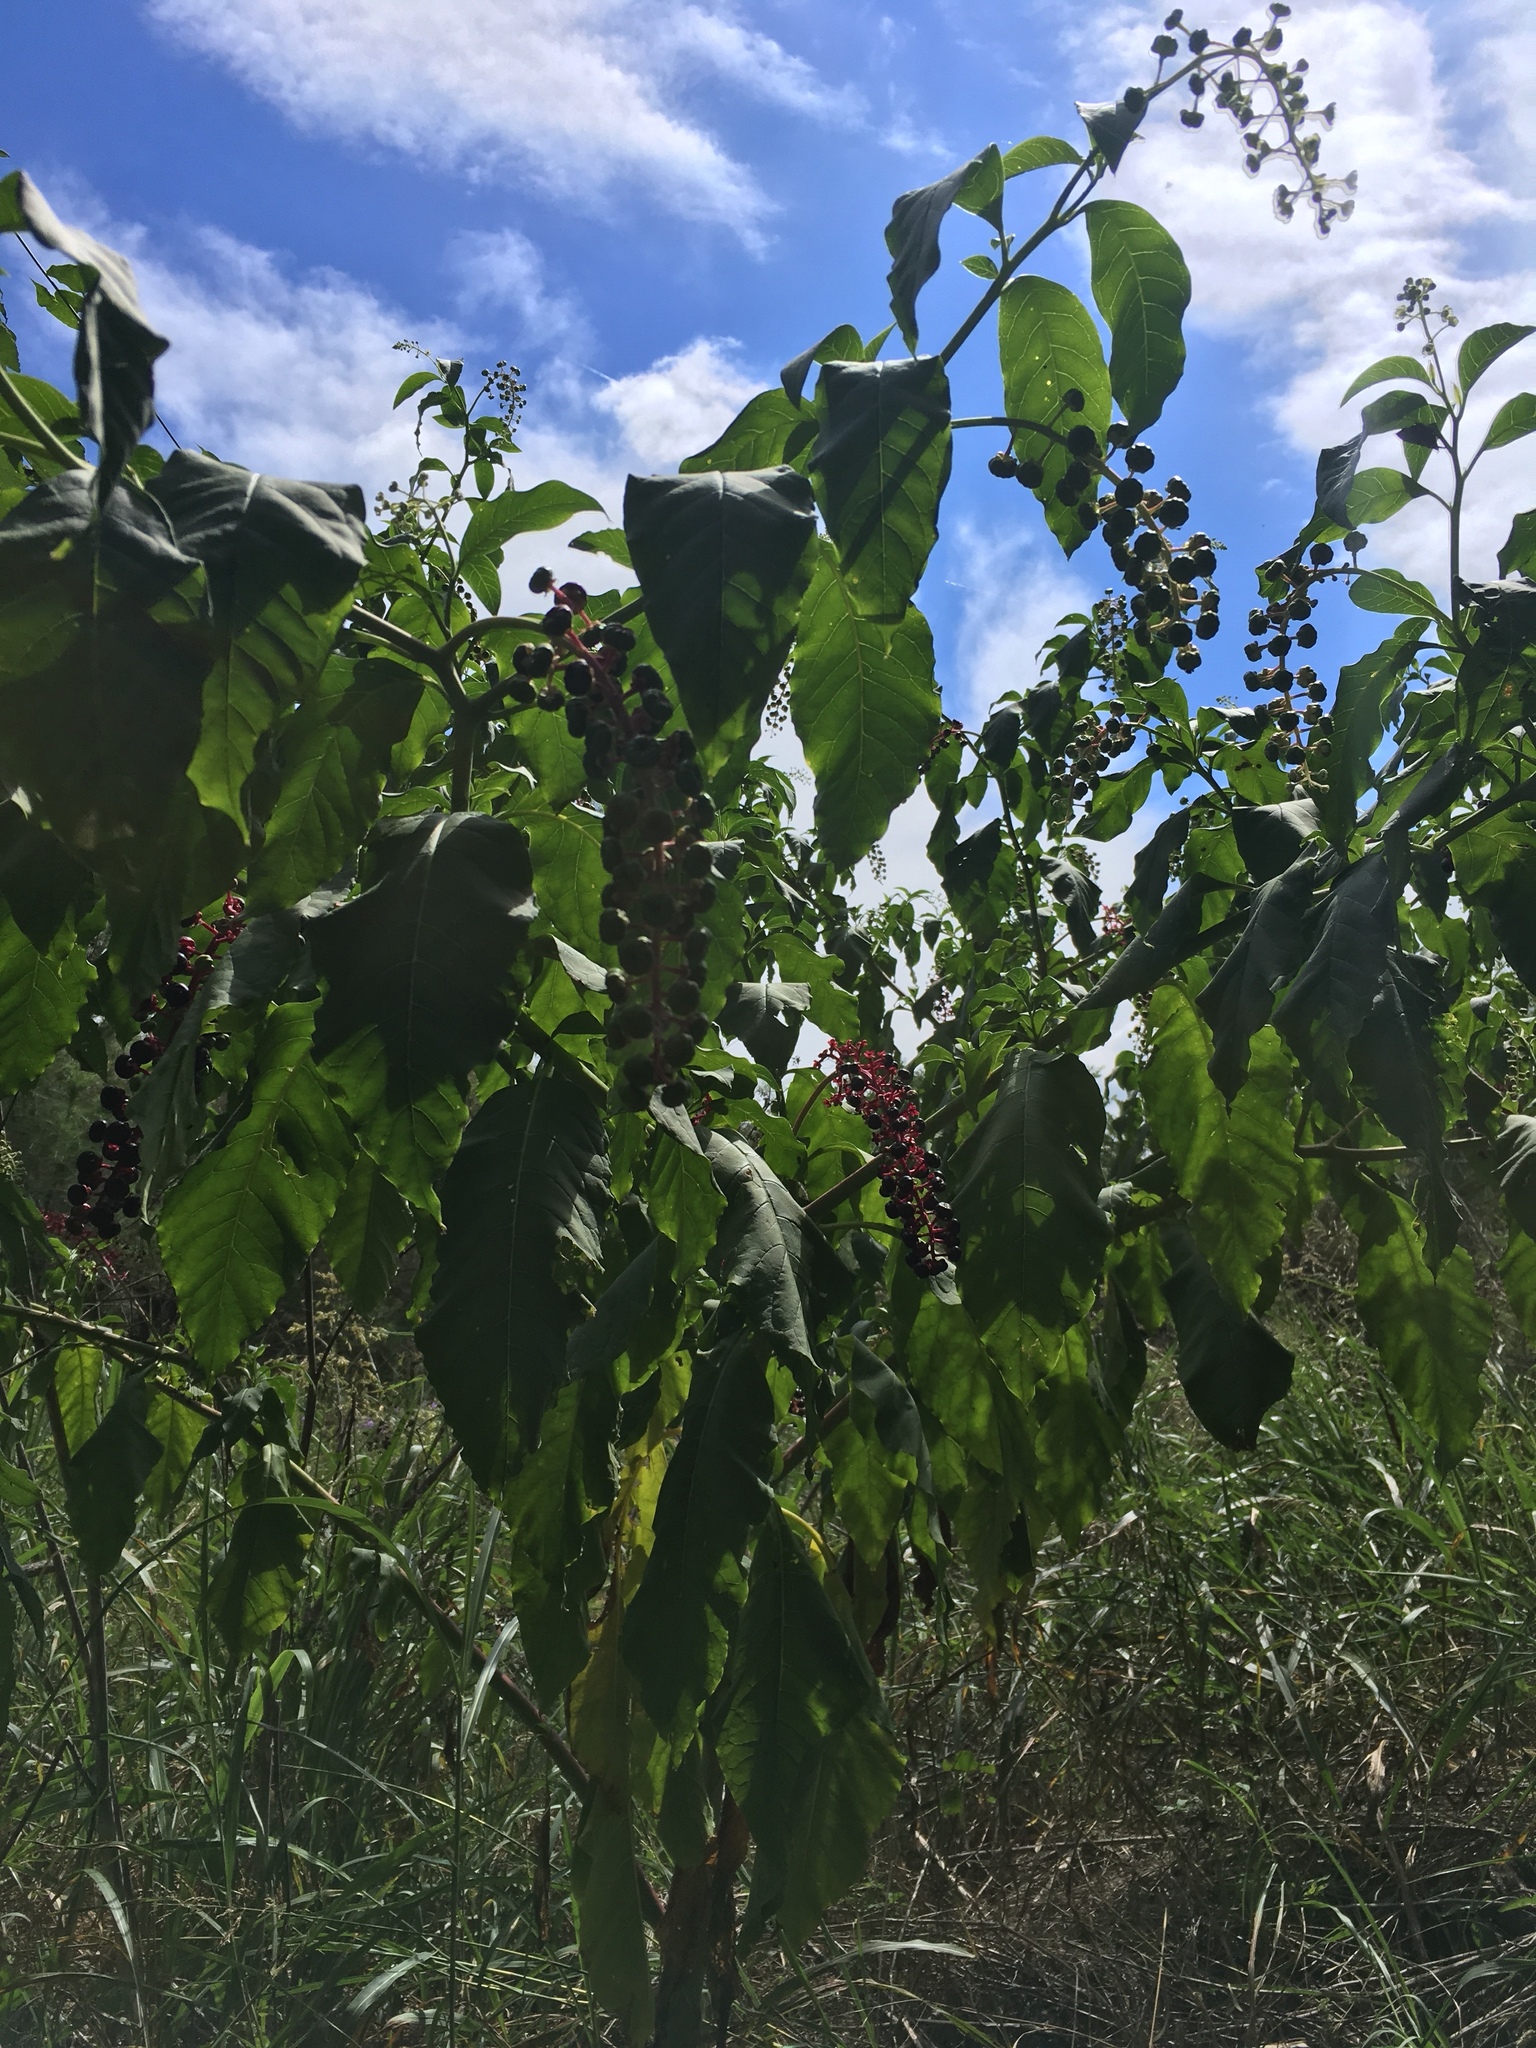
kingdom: Plantae
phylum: Tracheophyta
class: Magnoliopsida
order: Caryophyllales
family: Phytolaccaceae
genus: Phytolacca
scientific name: Phytolacca americana
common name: American pokeweed
